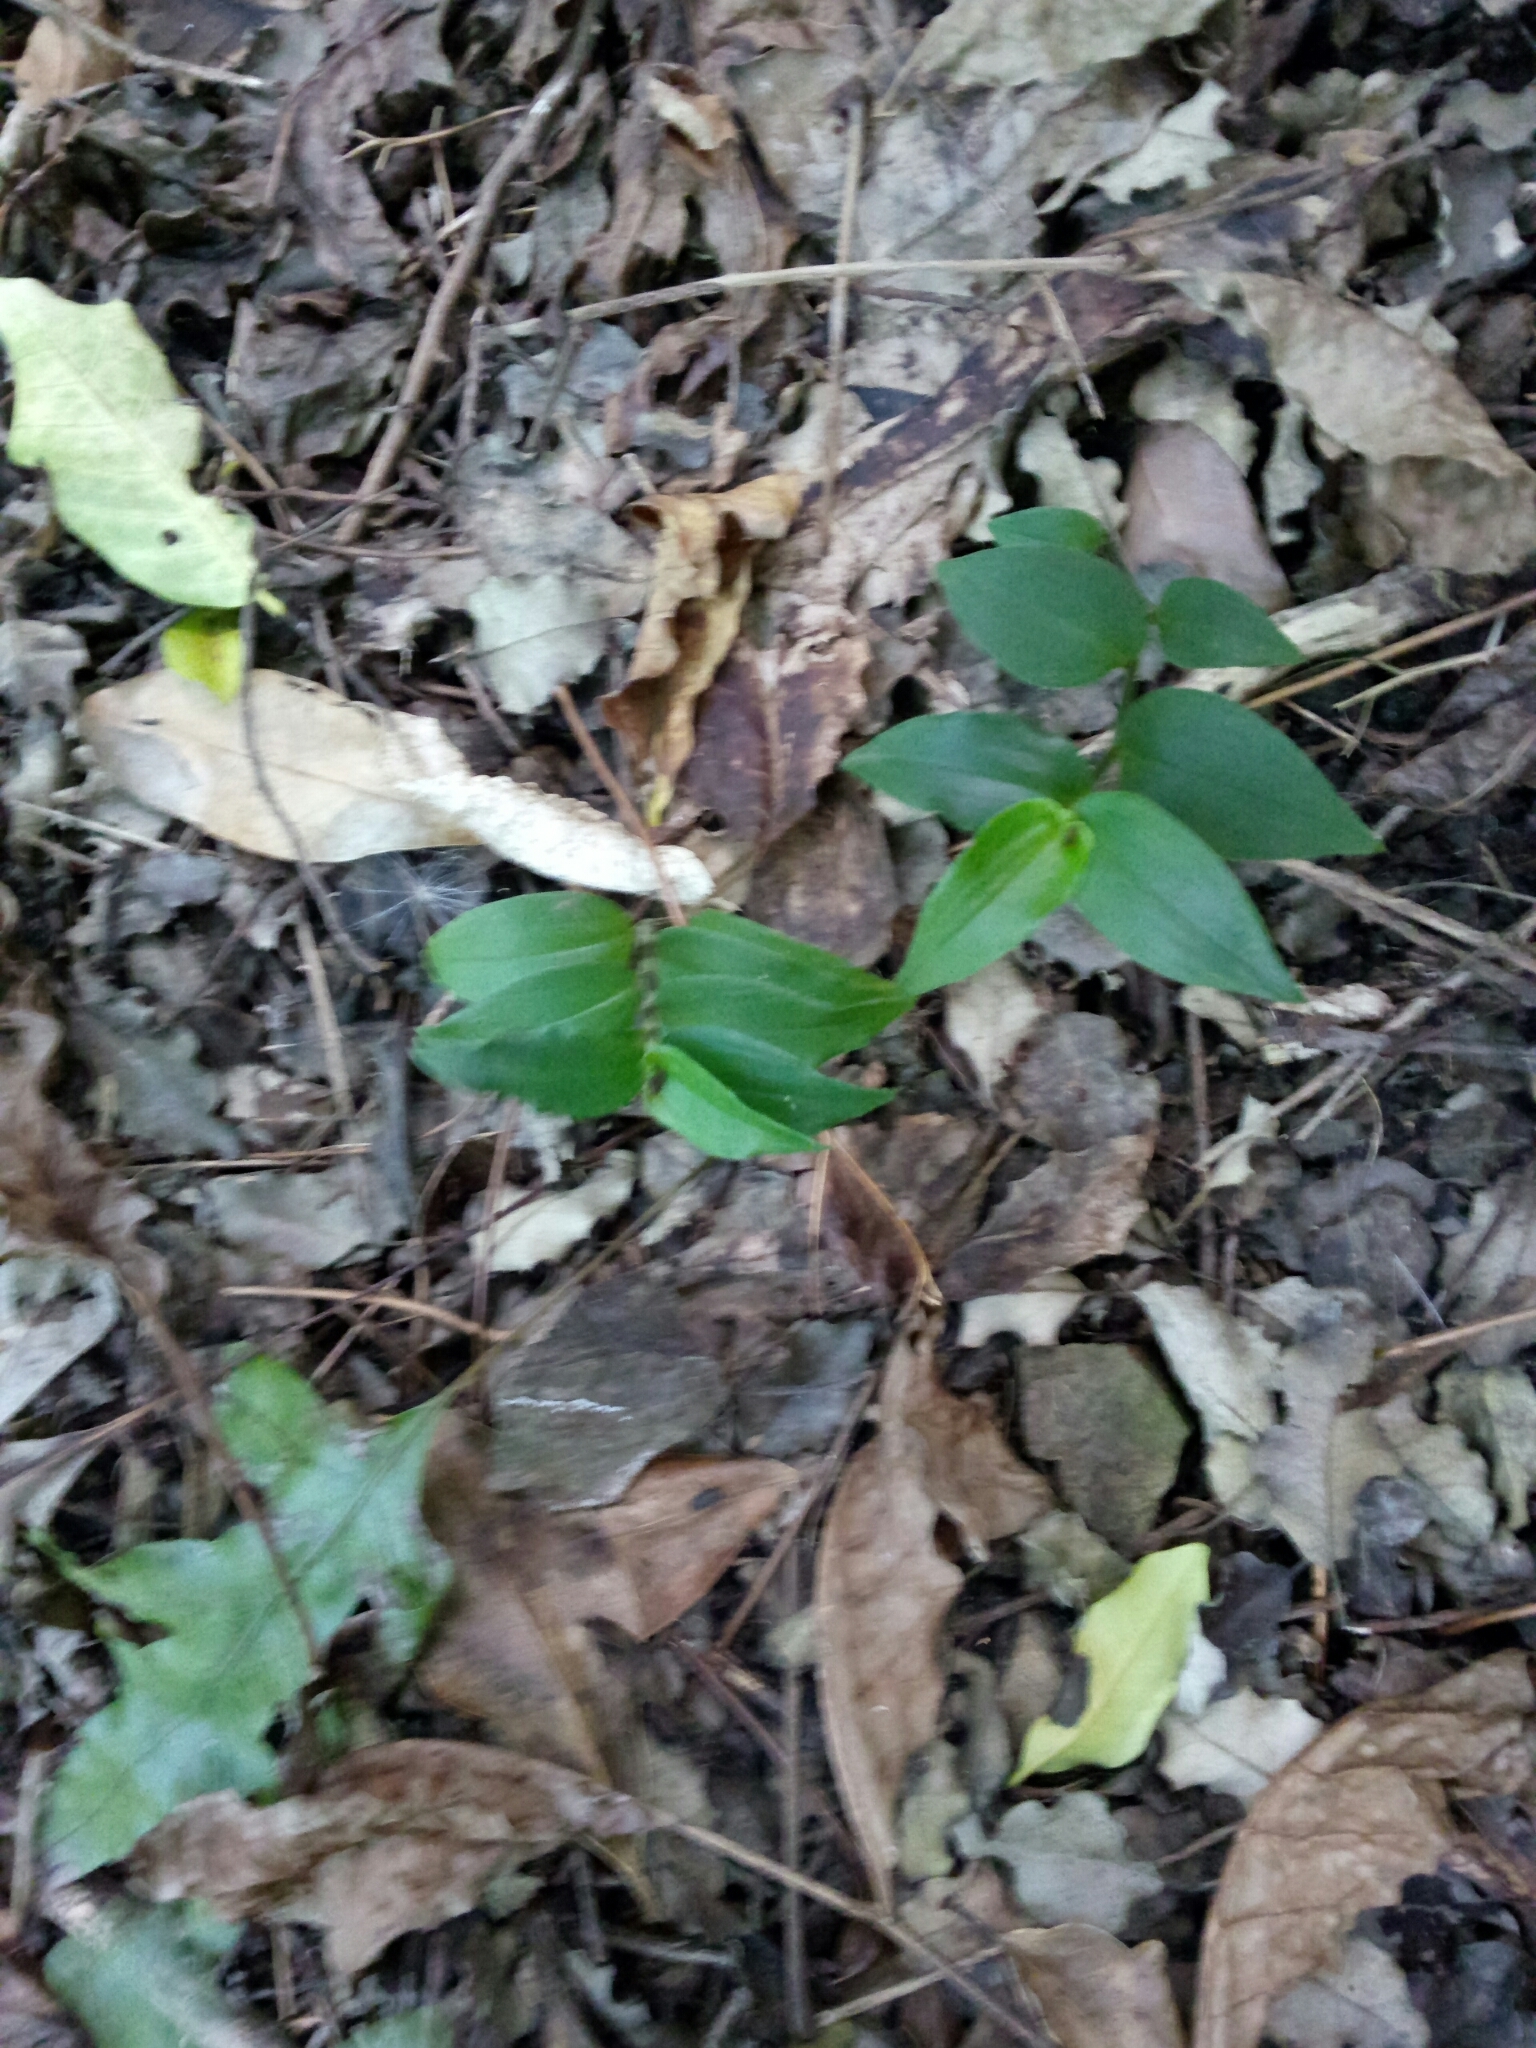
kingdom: Plantae
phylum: Tracheophyta
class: Liliopsida
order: Commelinales
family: Commelinaceae
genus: Tradescantia
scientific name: Tradescantia fluminensis
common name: Wandering-jew
